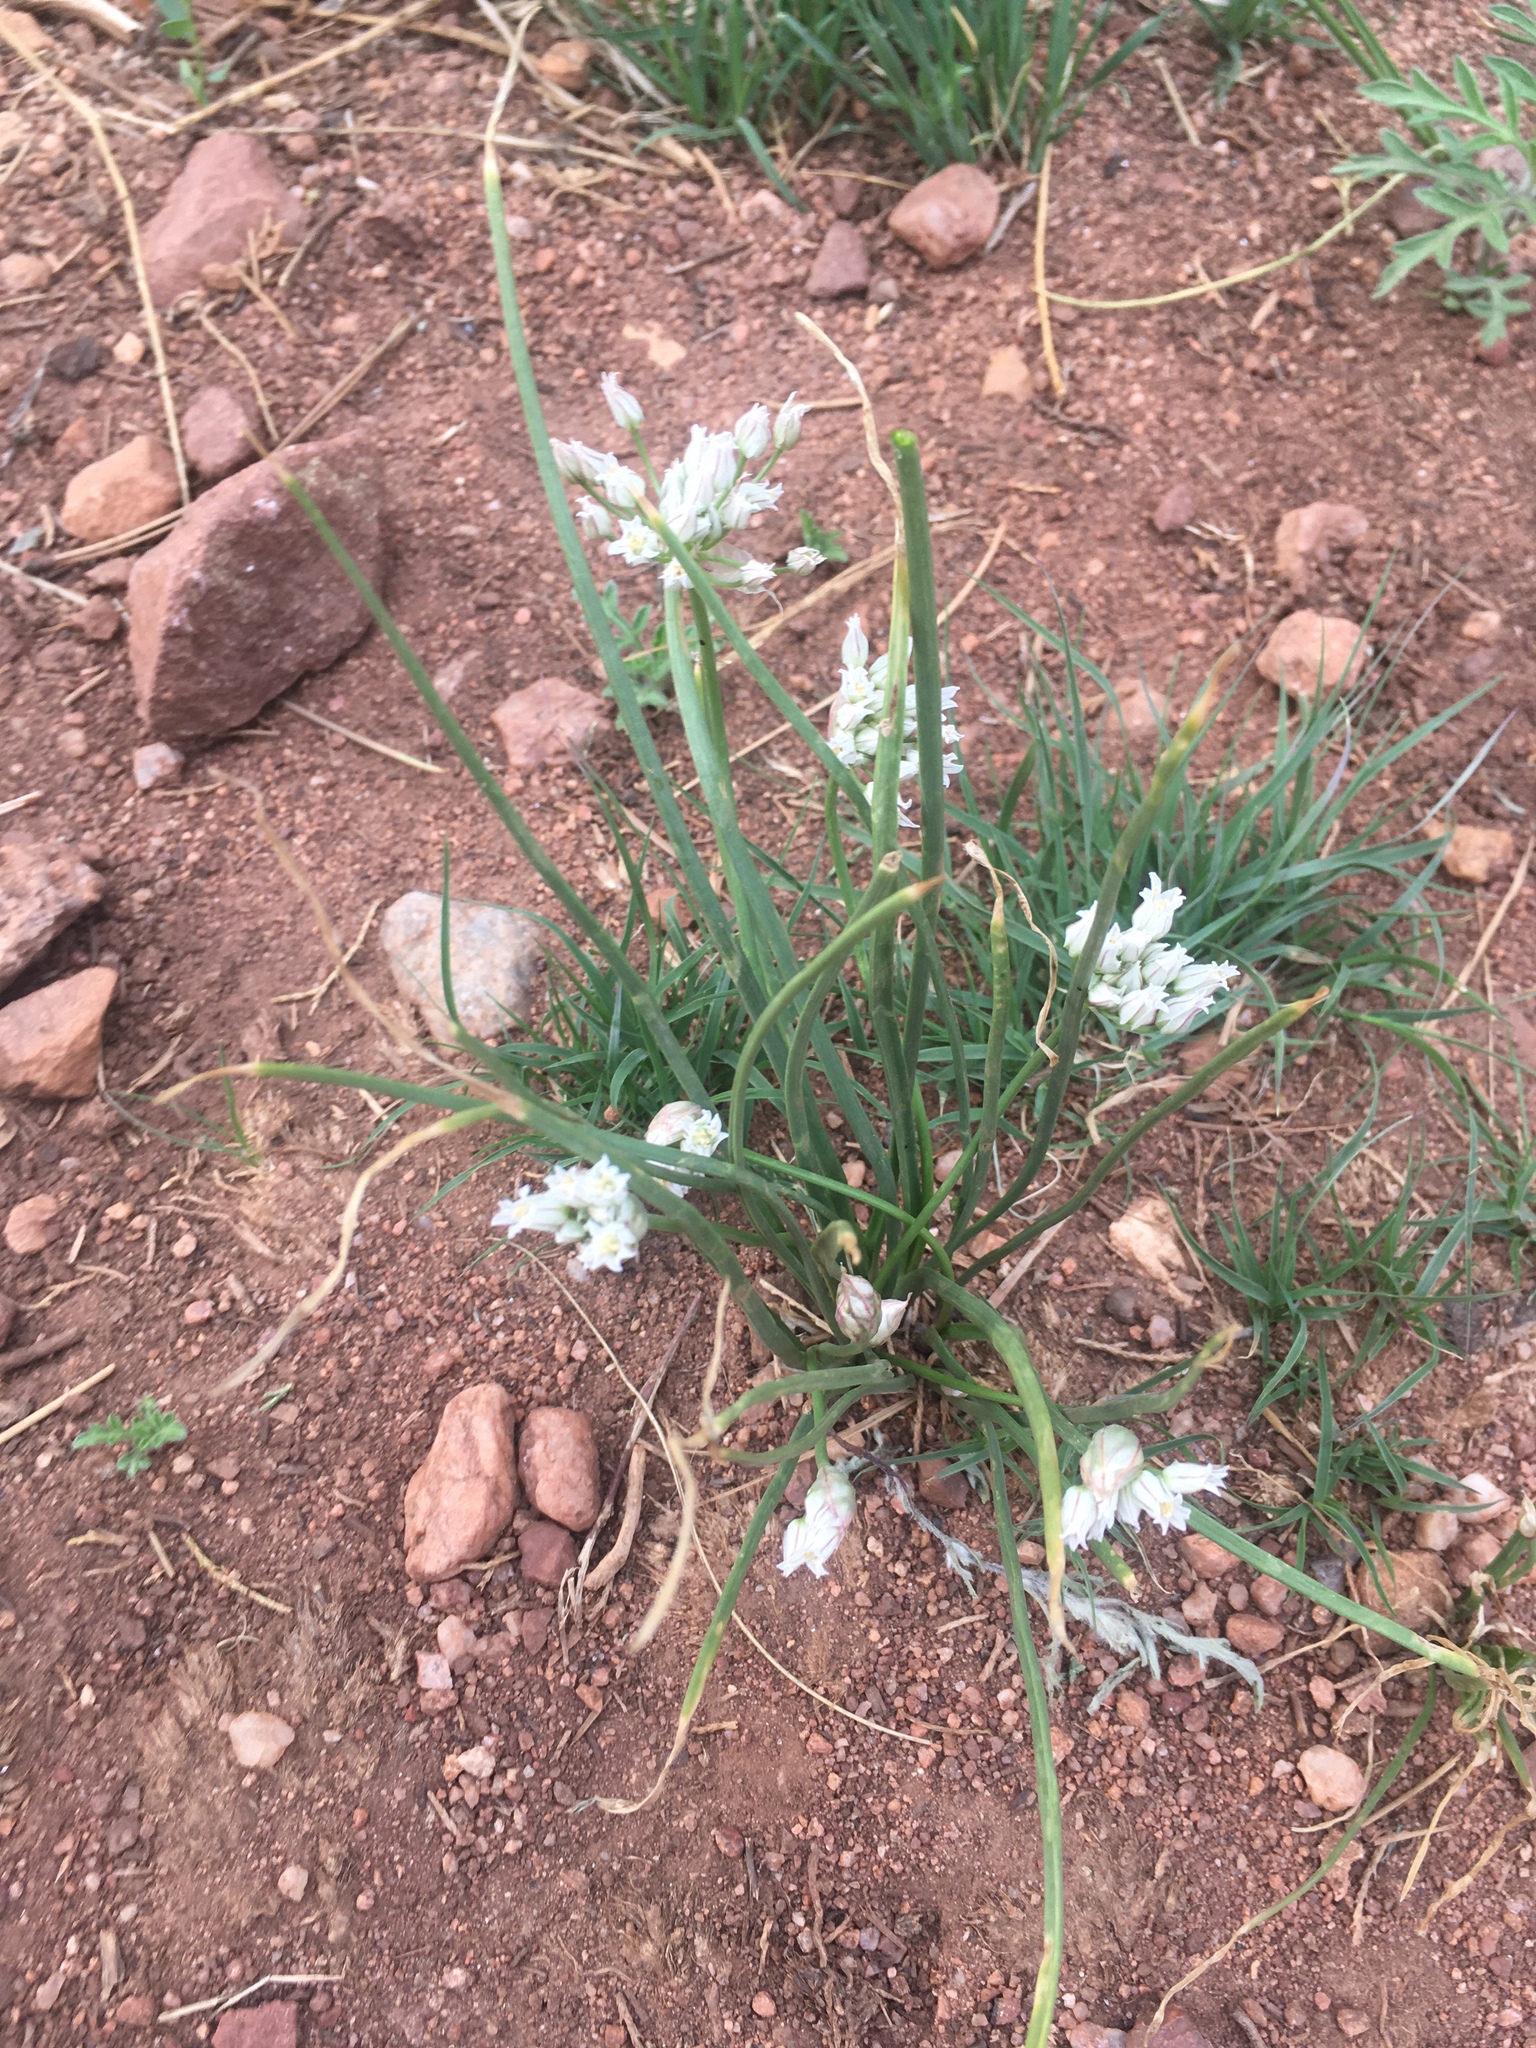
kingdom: Plantae
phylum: Tracheophyta
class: Liliopsida
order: Asparagales
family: Amaryllidaceae
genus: Allium
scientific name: Allium textile
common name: Prairie onion
